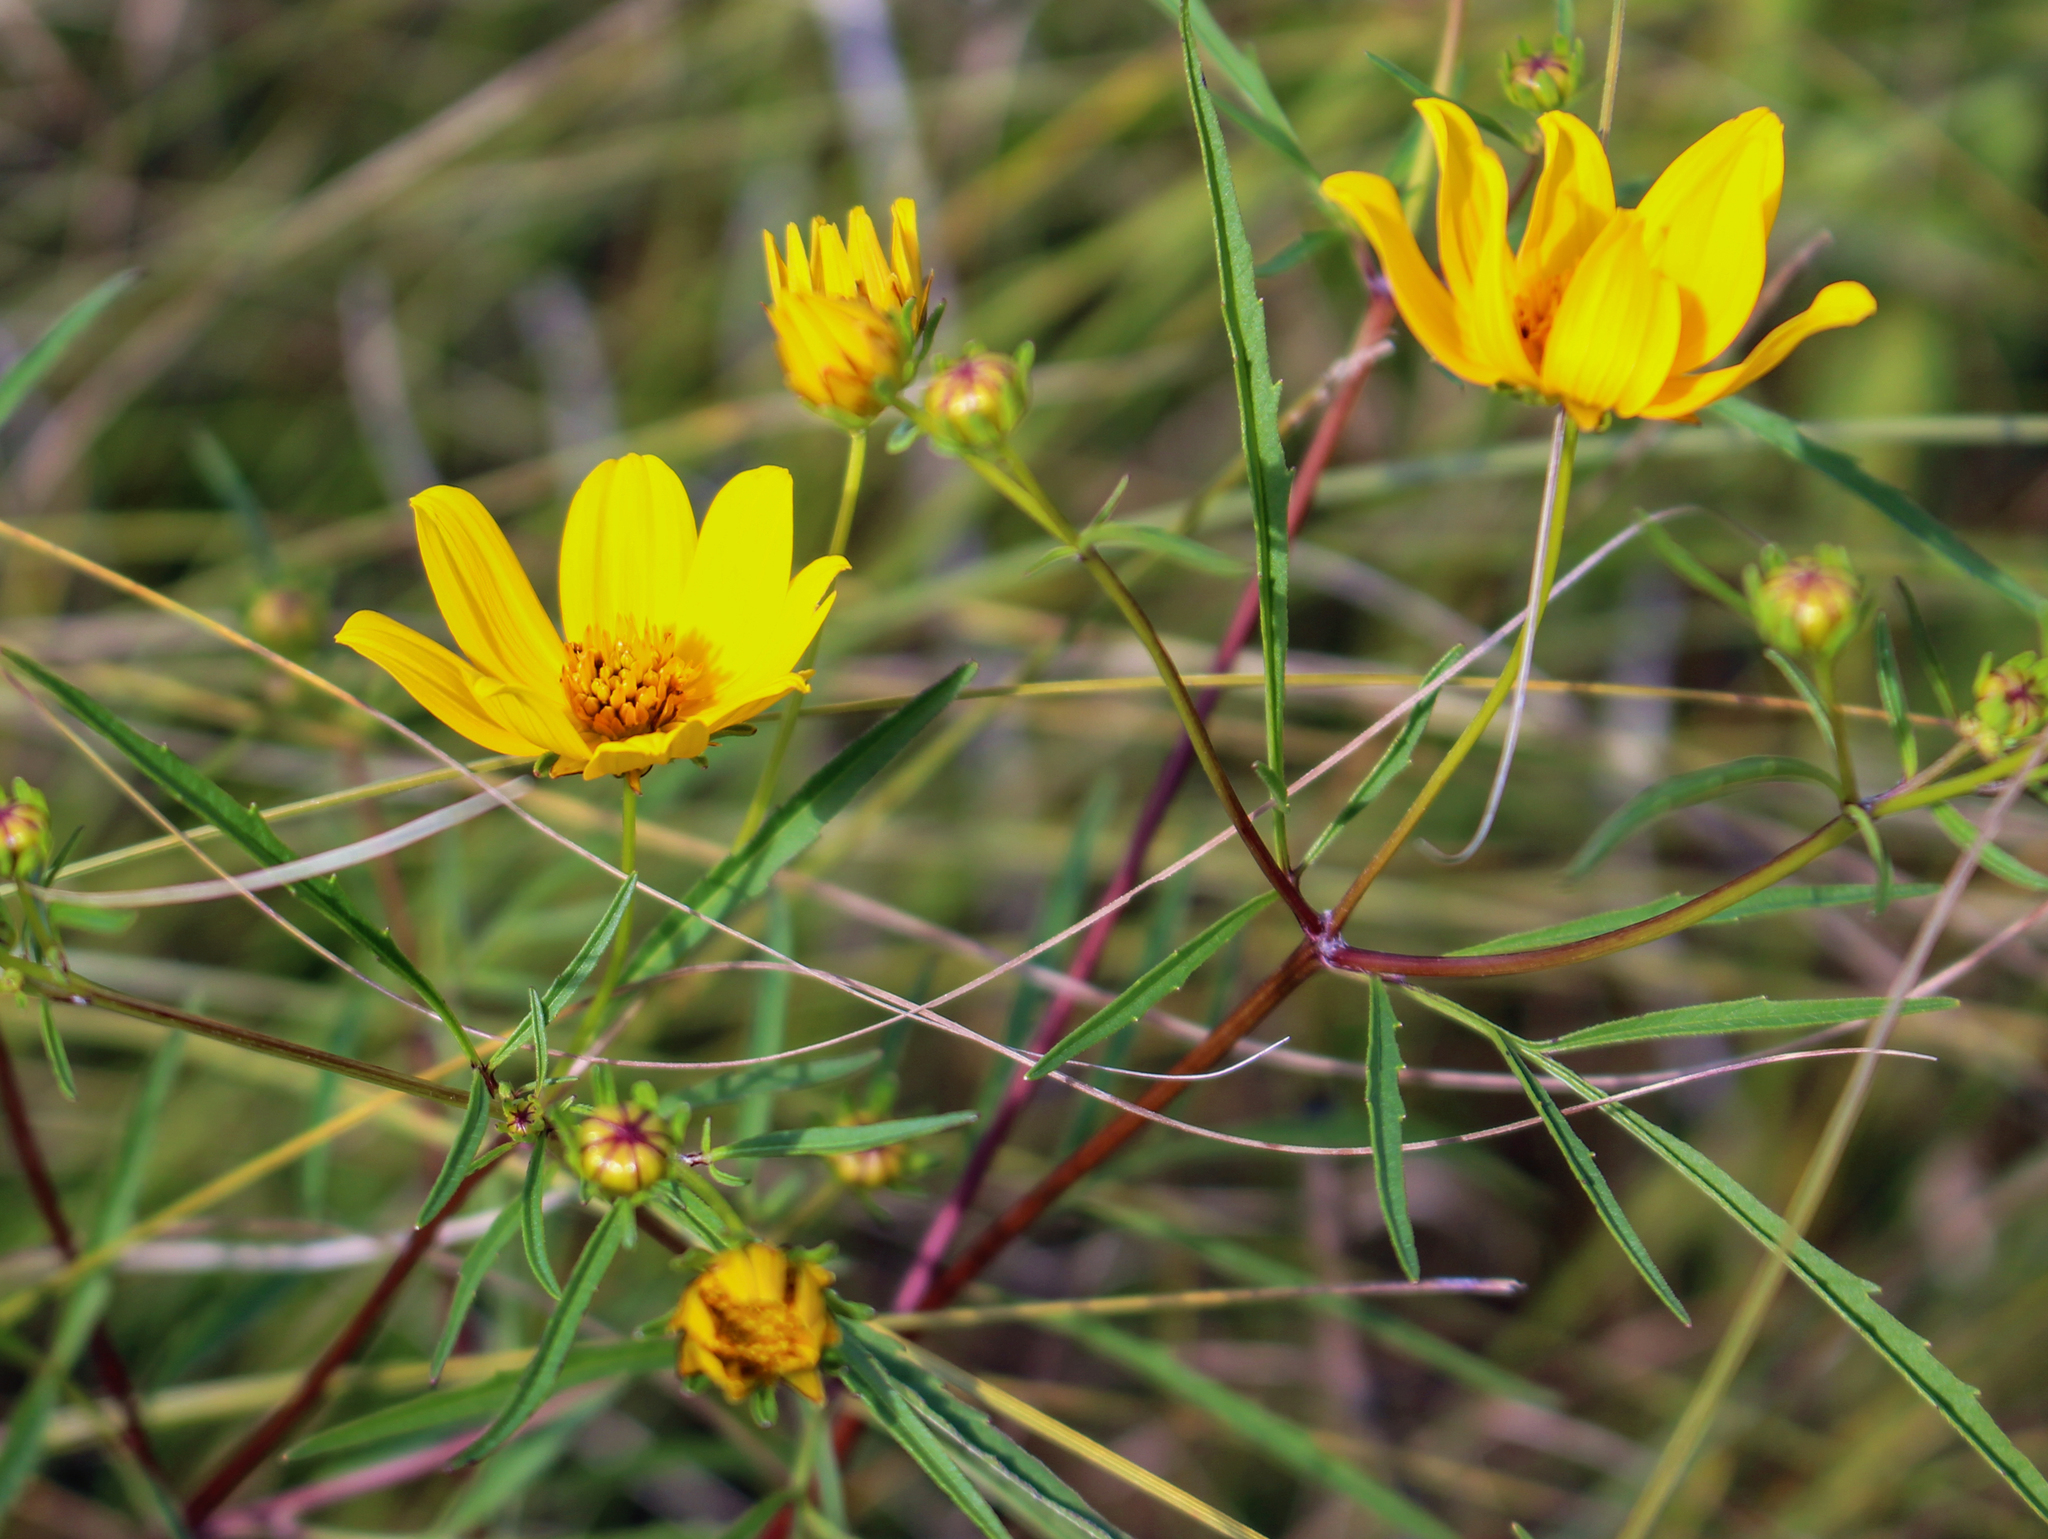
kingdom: Plantae
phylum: Tracheophyta
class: Magnoliopsida
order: Asterales
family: Asteraceae
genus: Bidens
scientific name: Bidens trichosperma
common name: Crowned beggarticks
